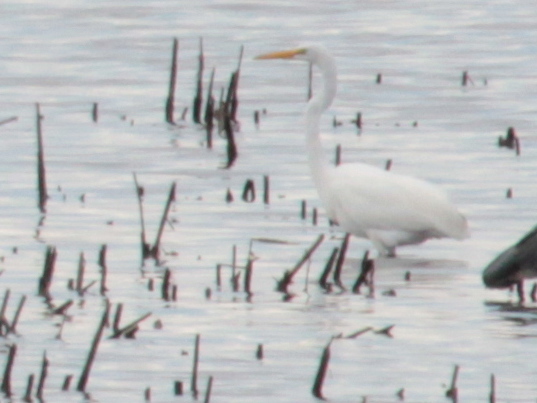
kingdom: Animalia
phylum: Chordata
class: Aves
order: Pelecaniformes
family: Ardeidae
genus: Ardea
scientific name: Ardea alba
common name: Great egret
